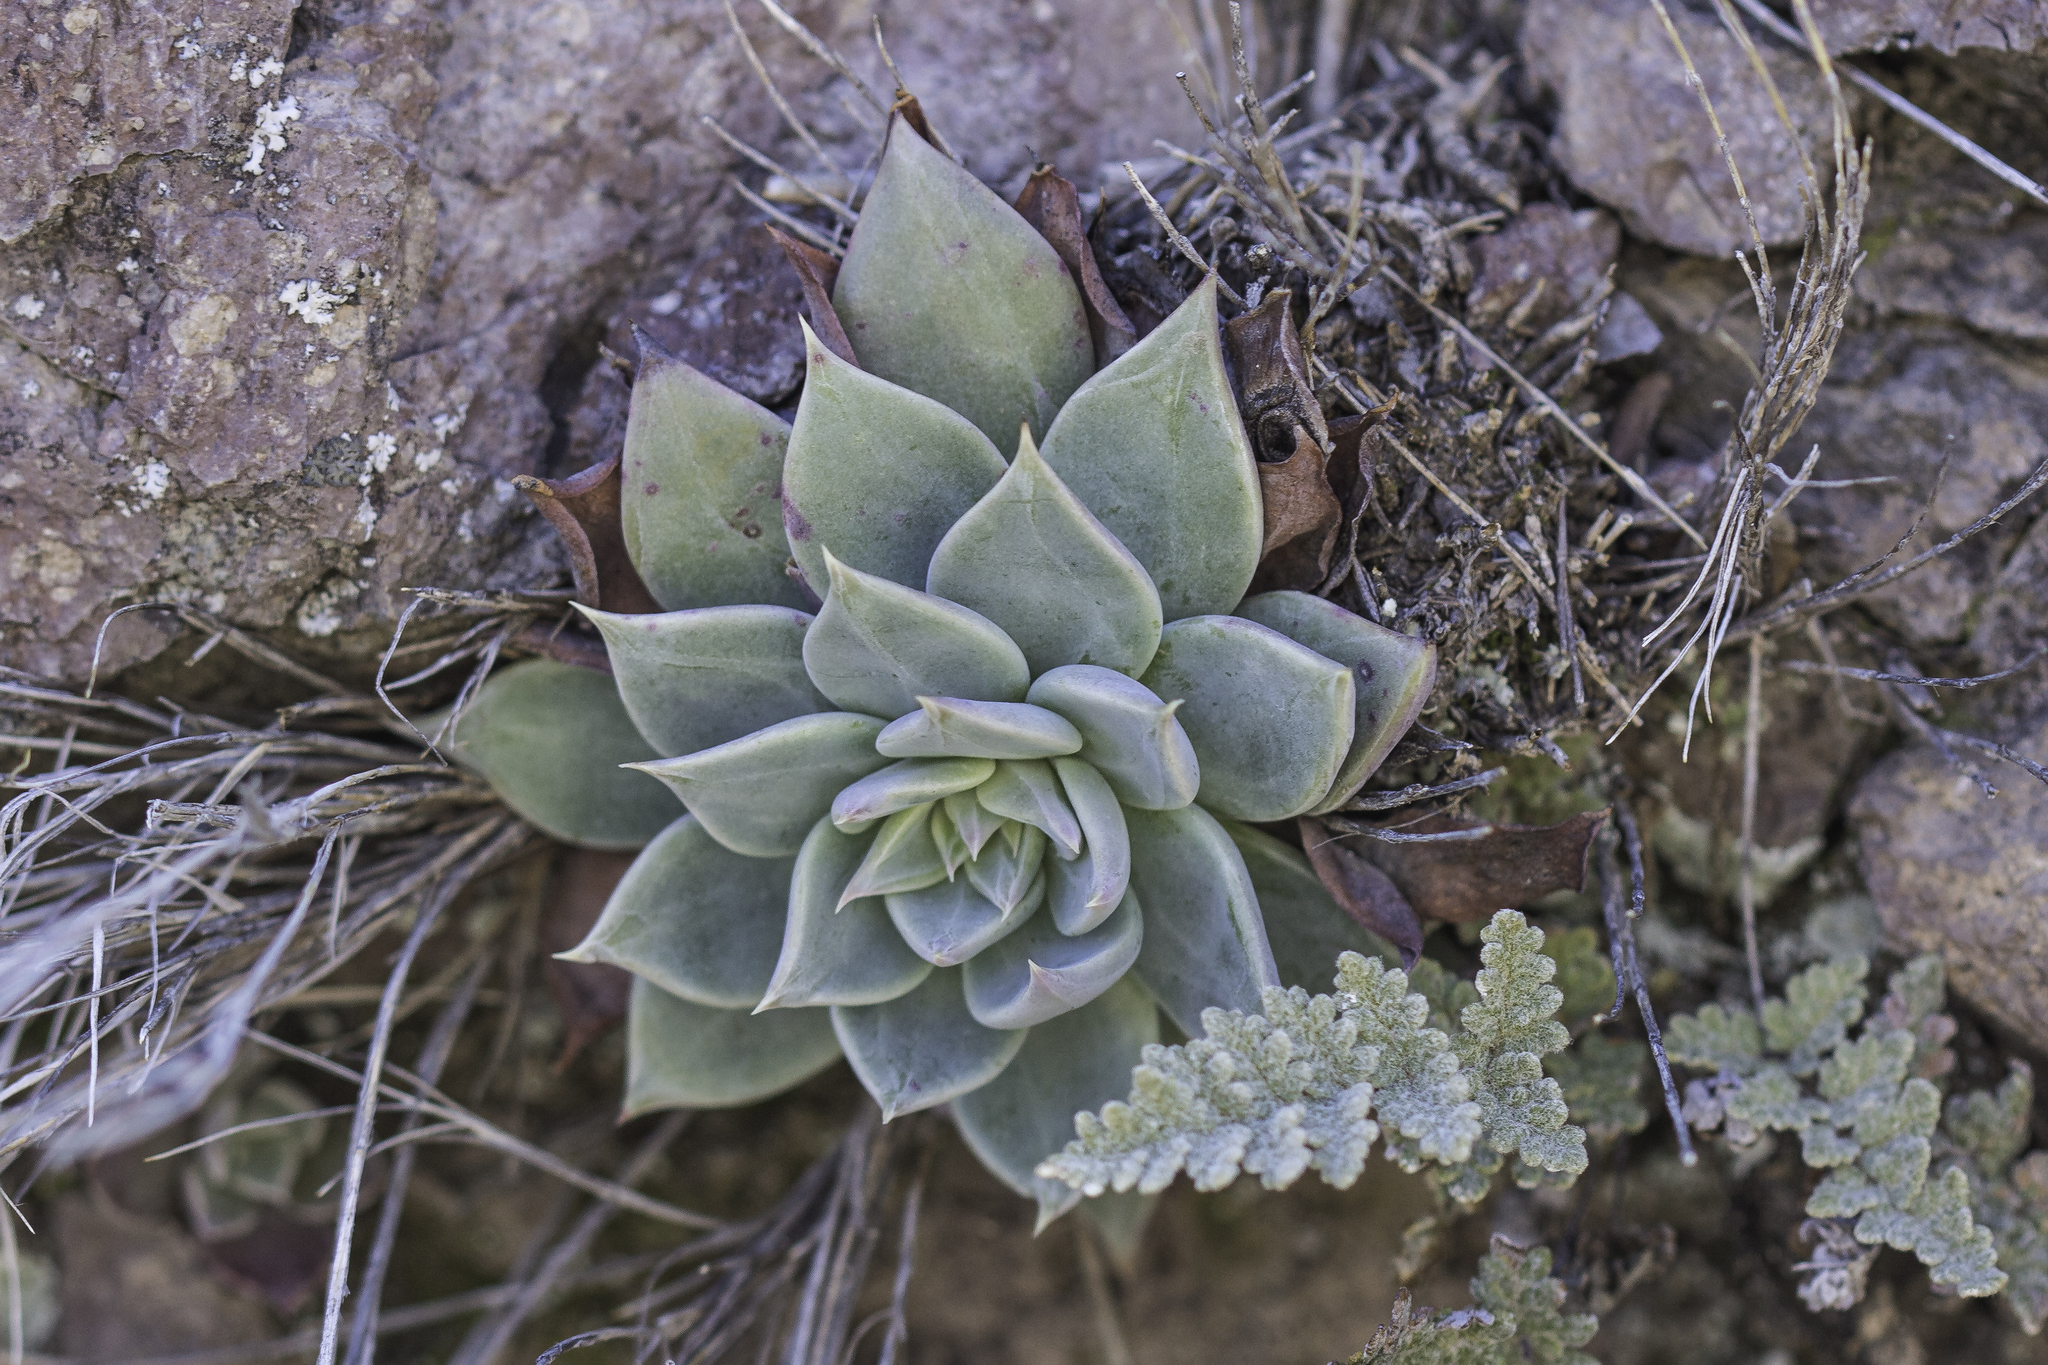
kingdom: Plantae
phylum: Tracheophyta
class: Magnoliopsida
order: Saxifragales
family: Crassulaceae
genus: Graptopetalum
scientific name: Graptopetalum bartramii
